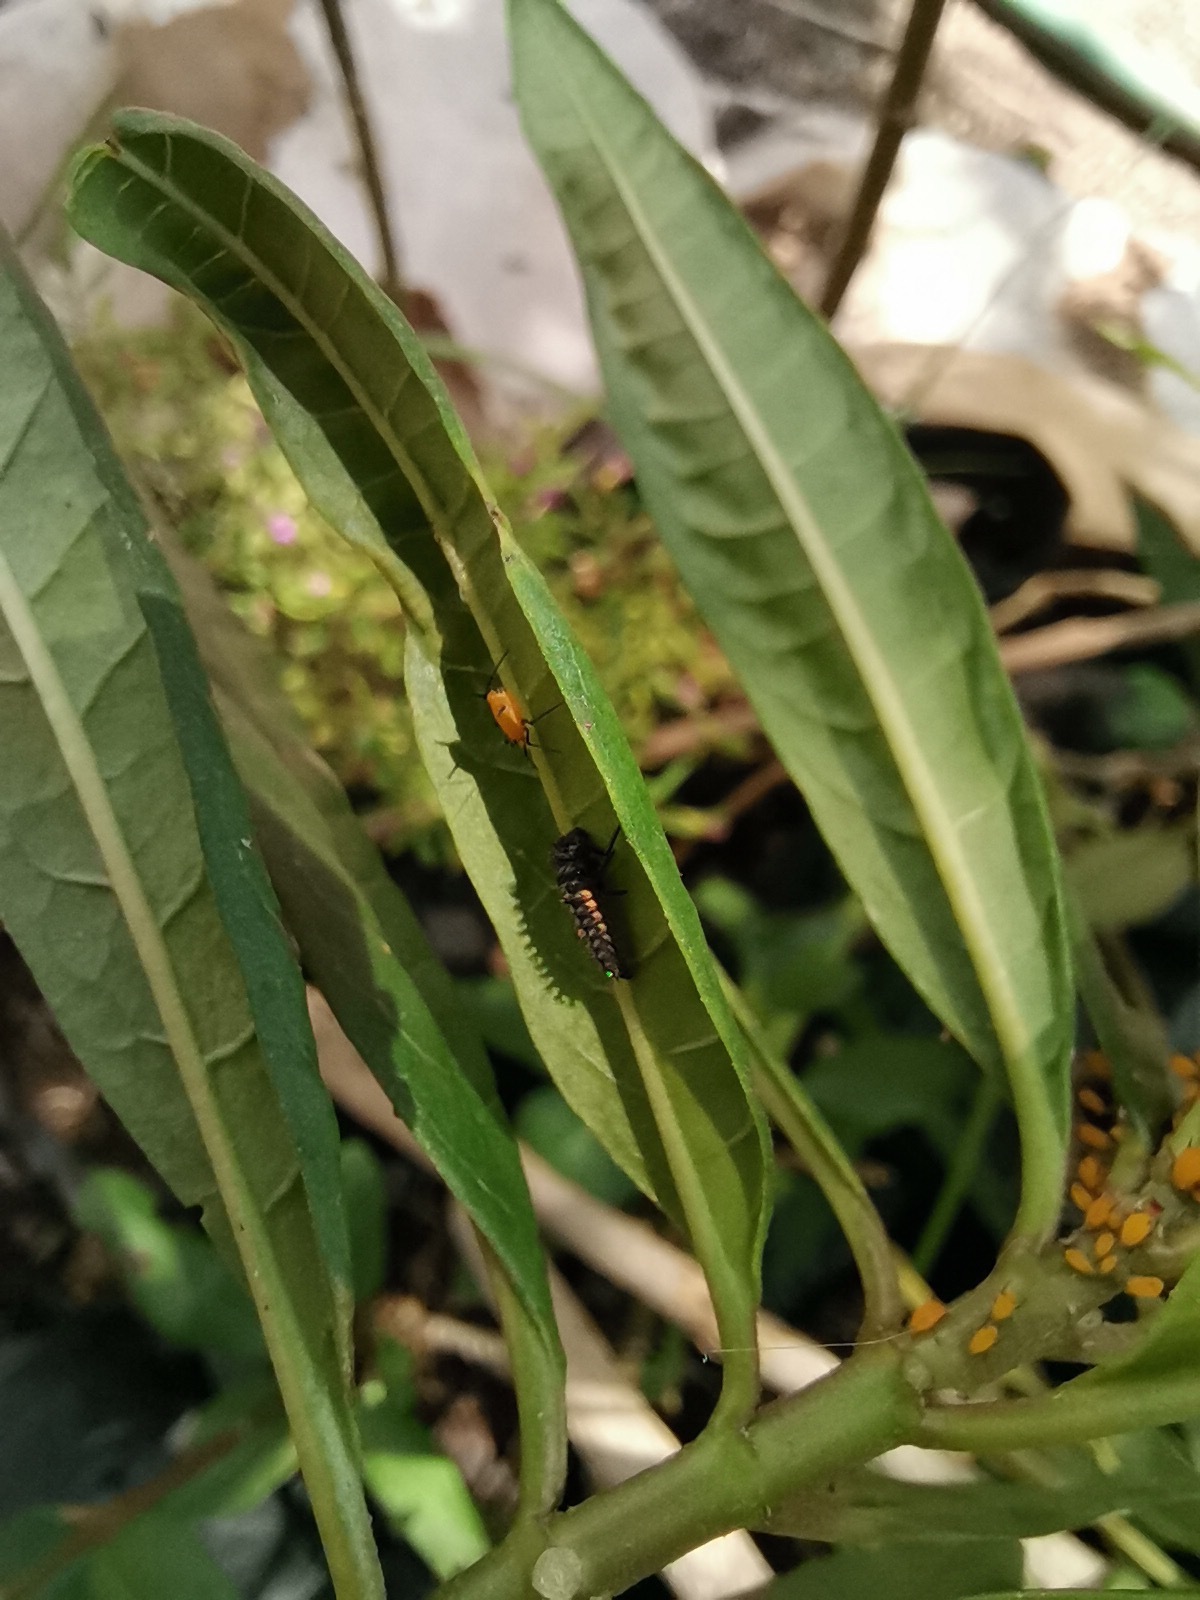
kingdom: Animalia
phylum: Arthropoda
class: Insecta
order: Coleoptera
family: Coccinellidae
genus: Harmonia
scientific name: Harmonia axyridis
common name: Harlequin ladybird
